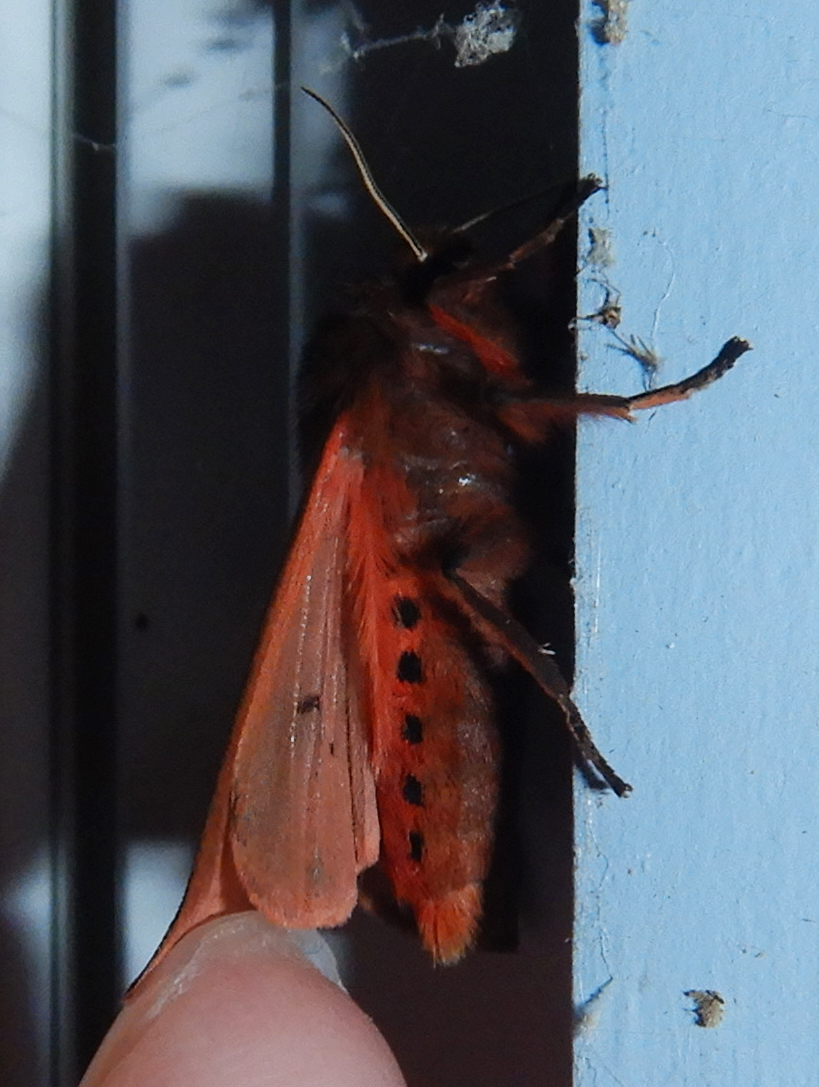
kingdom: Animalia
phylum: Arthropoda
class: Insecta
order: Lepidoptera
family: Erebidae
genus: Phragmatobia
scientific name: Phragmatobia fuliginosa
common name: Ruby tiger
